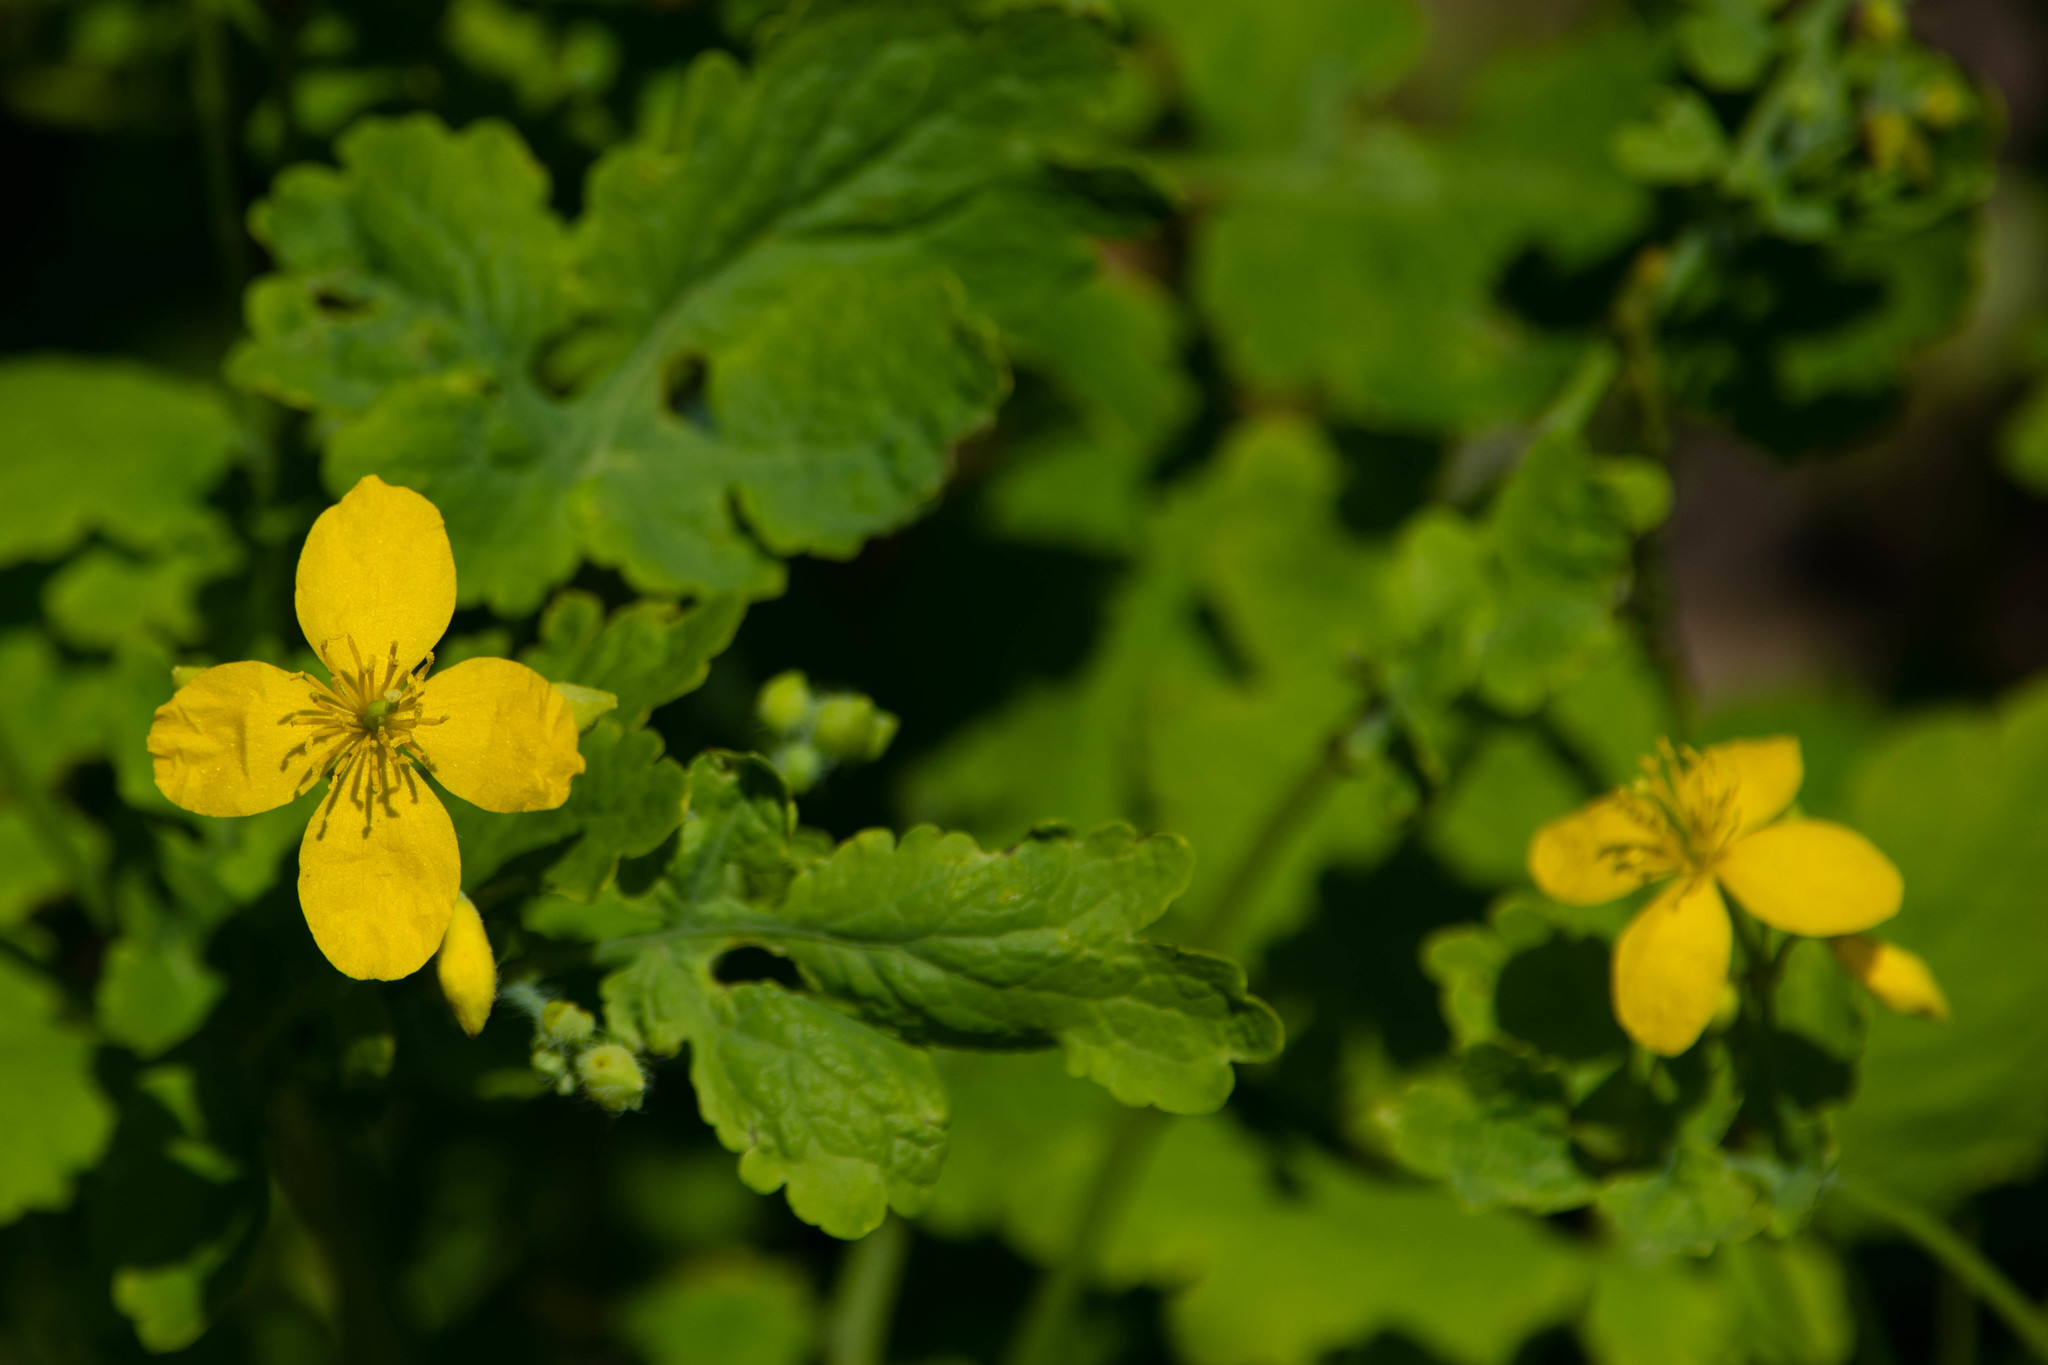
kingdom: Plantae
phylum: Tracheophyta
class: Magnoliopsida
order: Ranunculales
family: Papaveraceae
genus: Chelidonium
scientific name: Chelidonium majus
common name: Greater celandine
